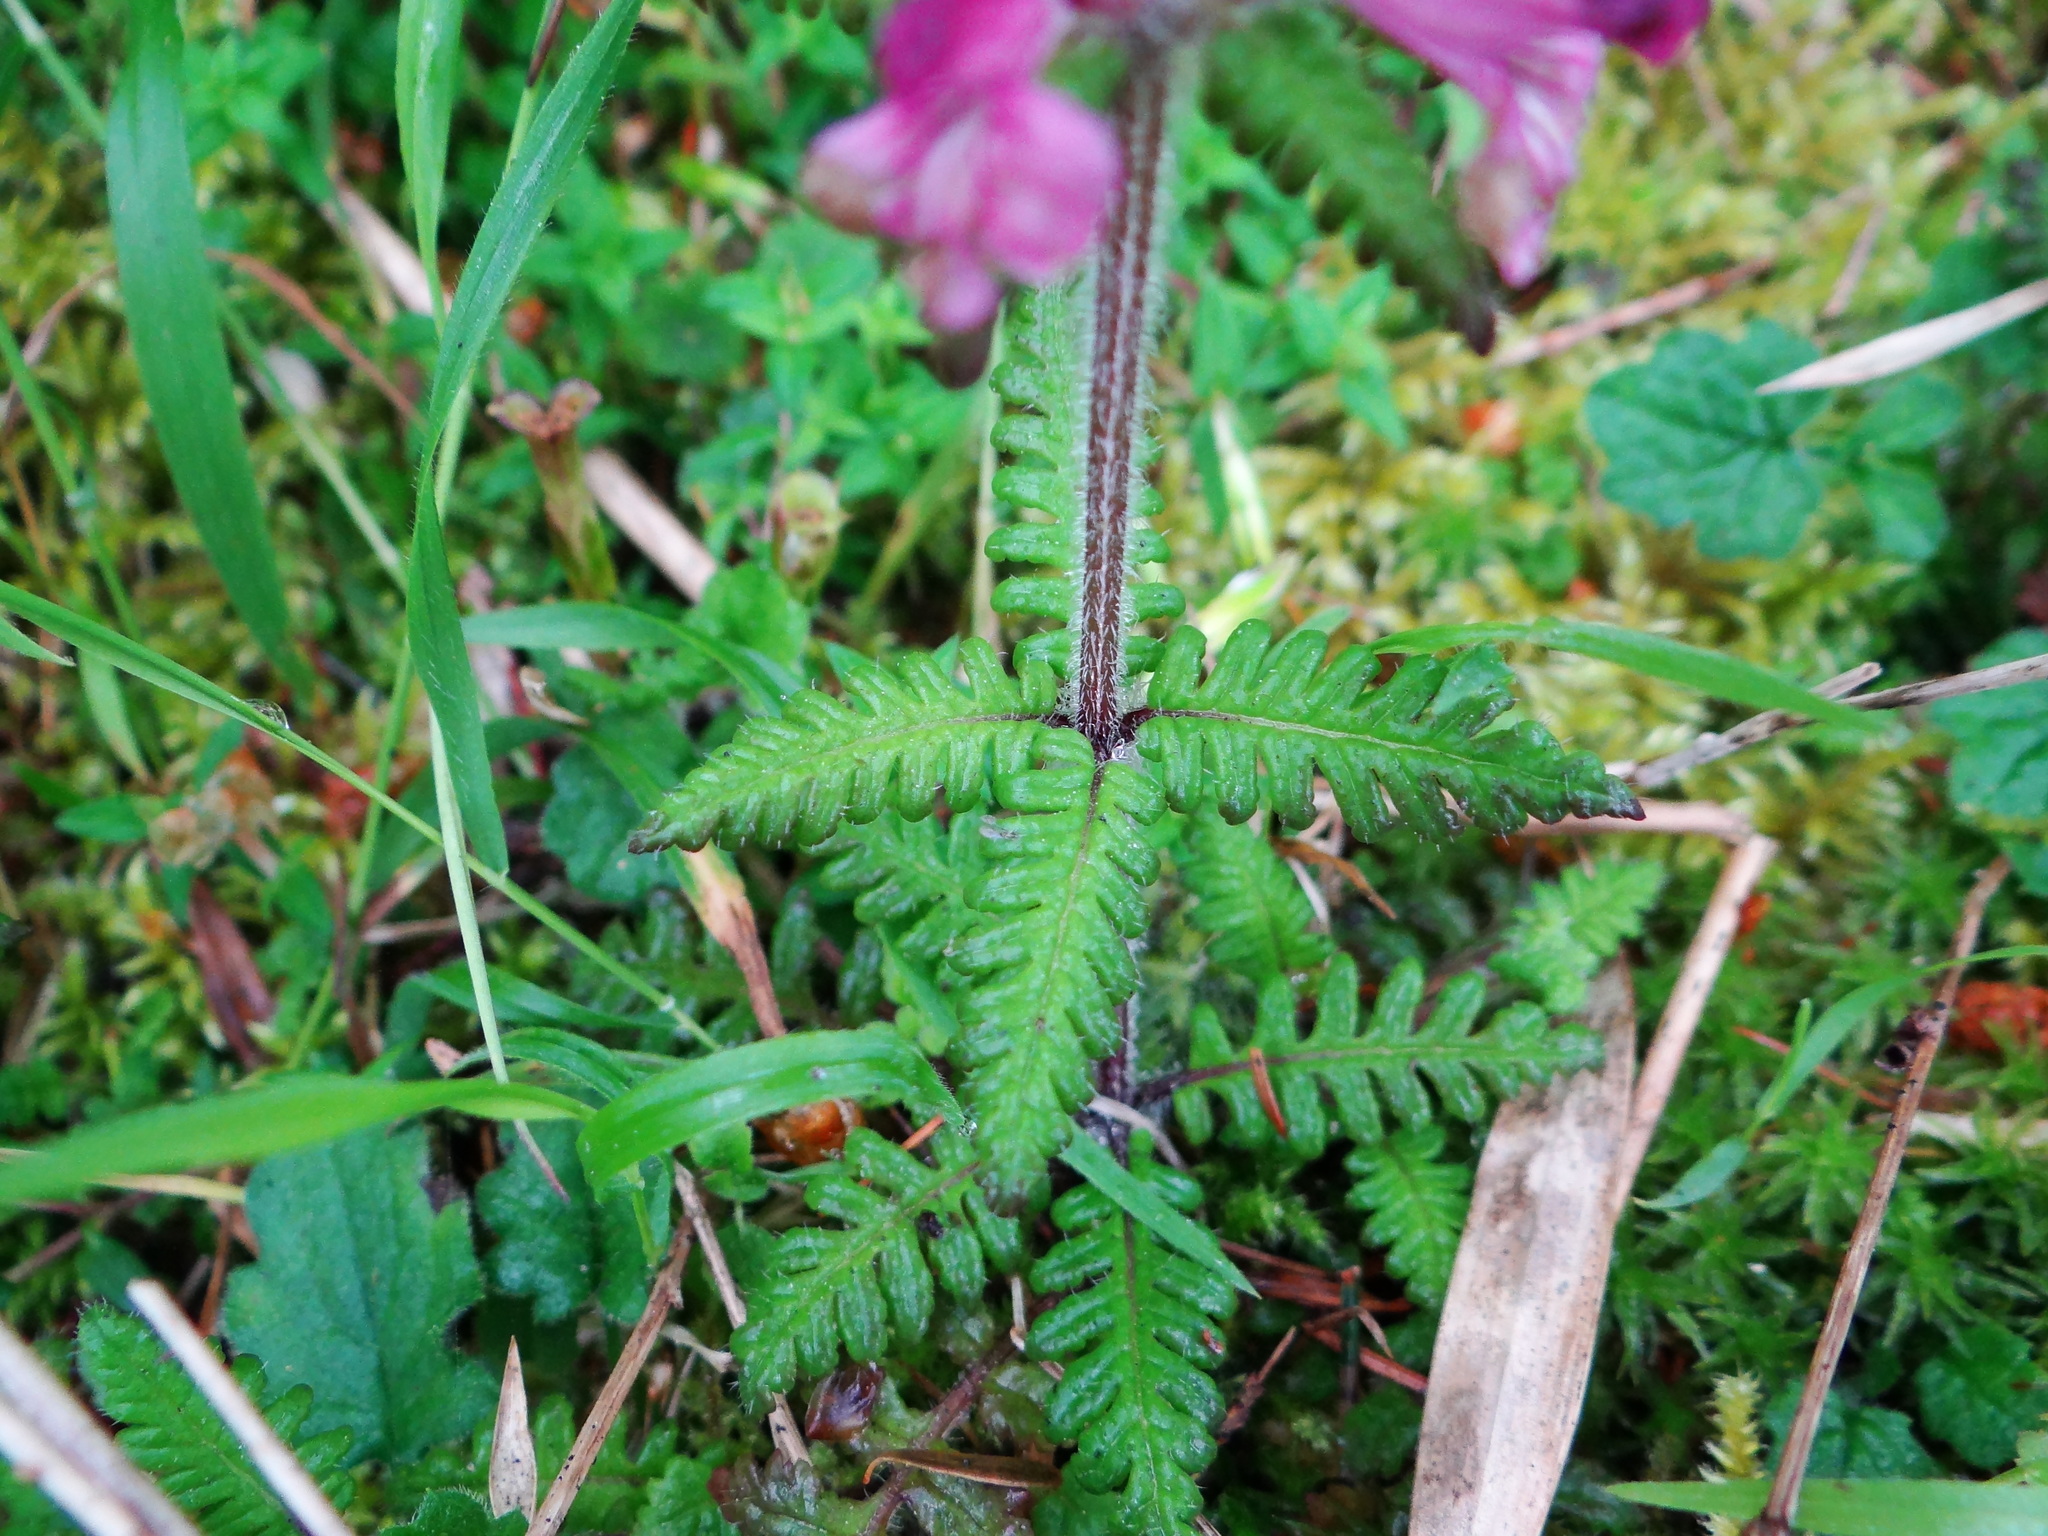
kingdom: Plantae
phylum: Tracheophyta
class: Magnoliopsida
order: Lamiales
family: Orobanchaceae
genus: Pedicularis
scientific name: Pedicularis refracta
